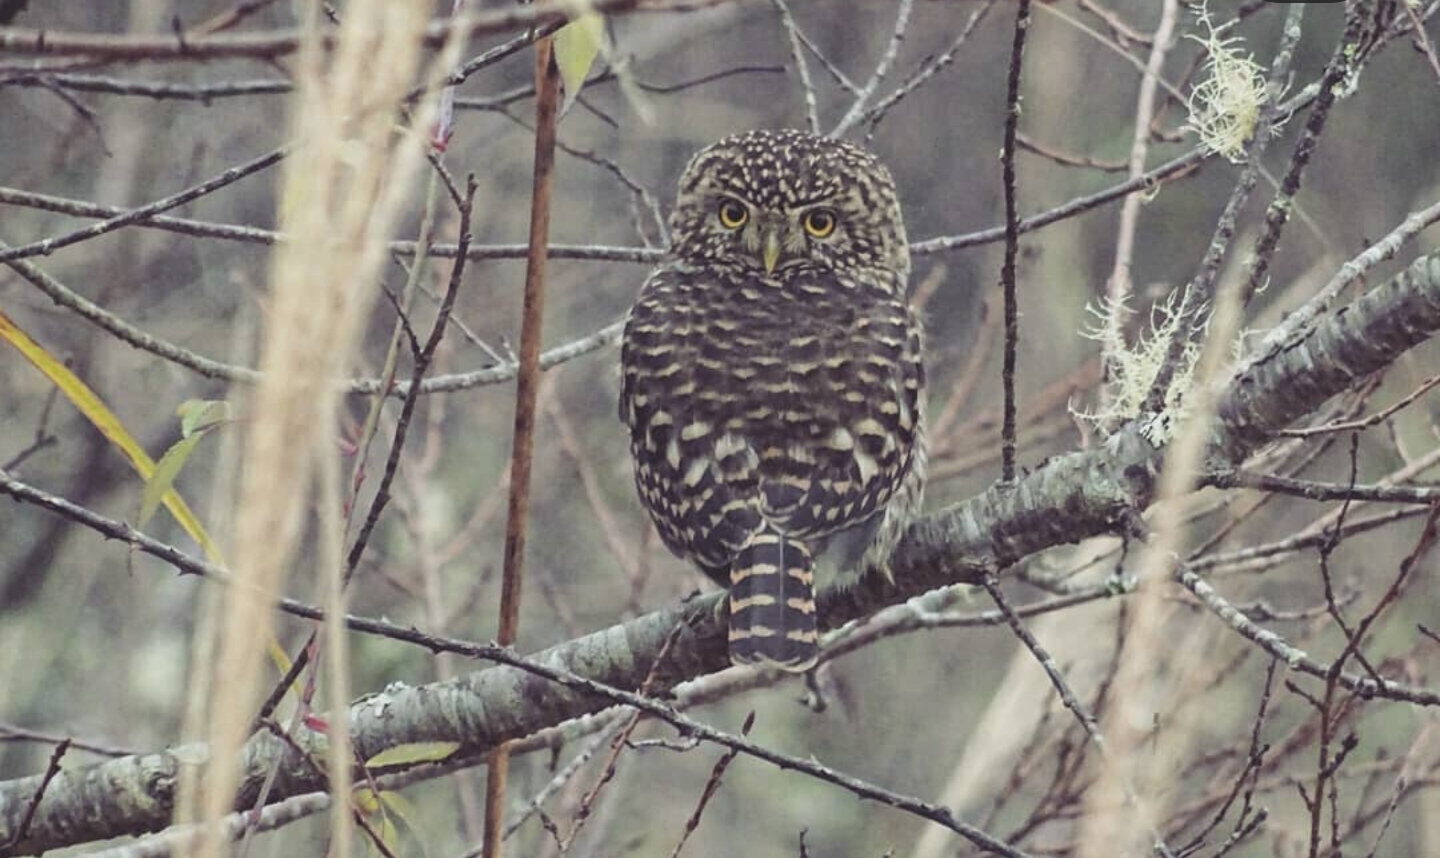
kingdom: Animalia
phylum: Chordata
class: Aves
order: Strigiformes
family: Strigidae
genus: Glaucidium
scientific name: Glaucidium brodiei
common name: Collared owlet
